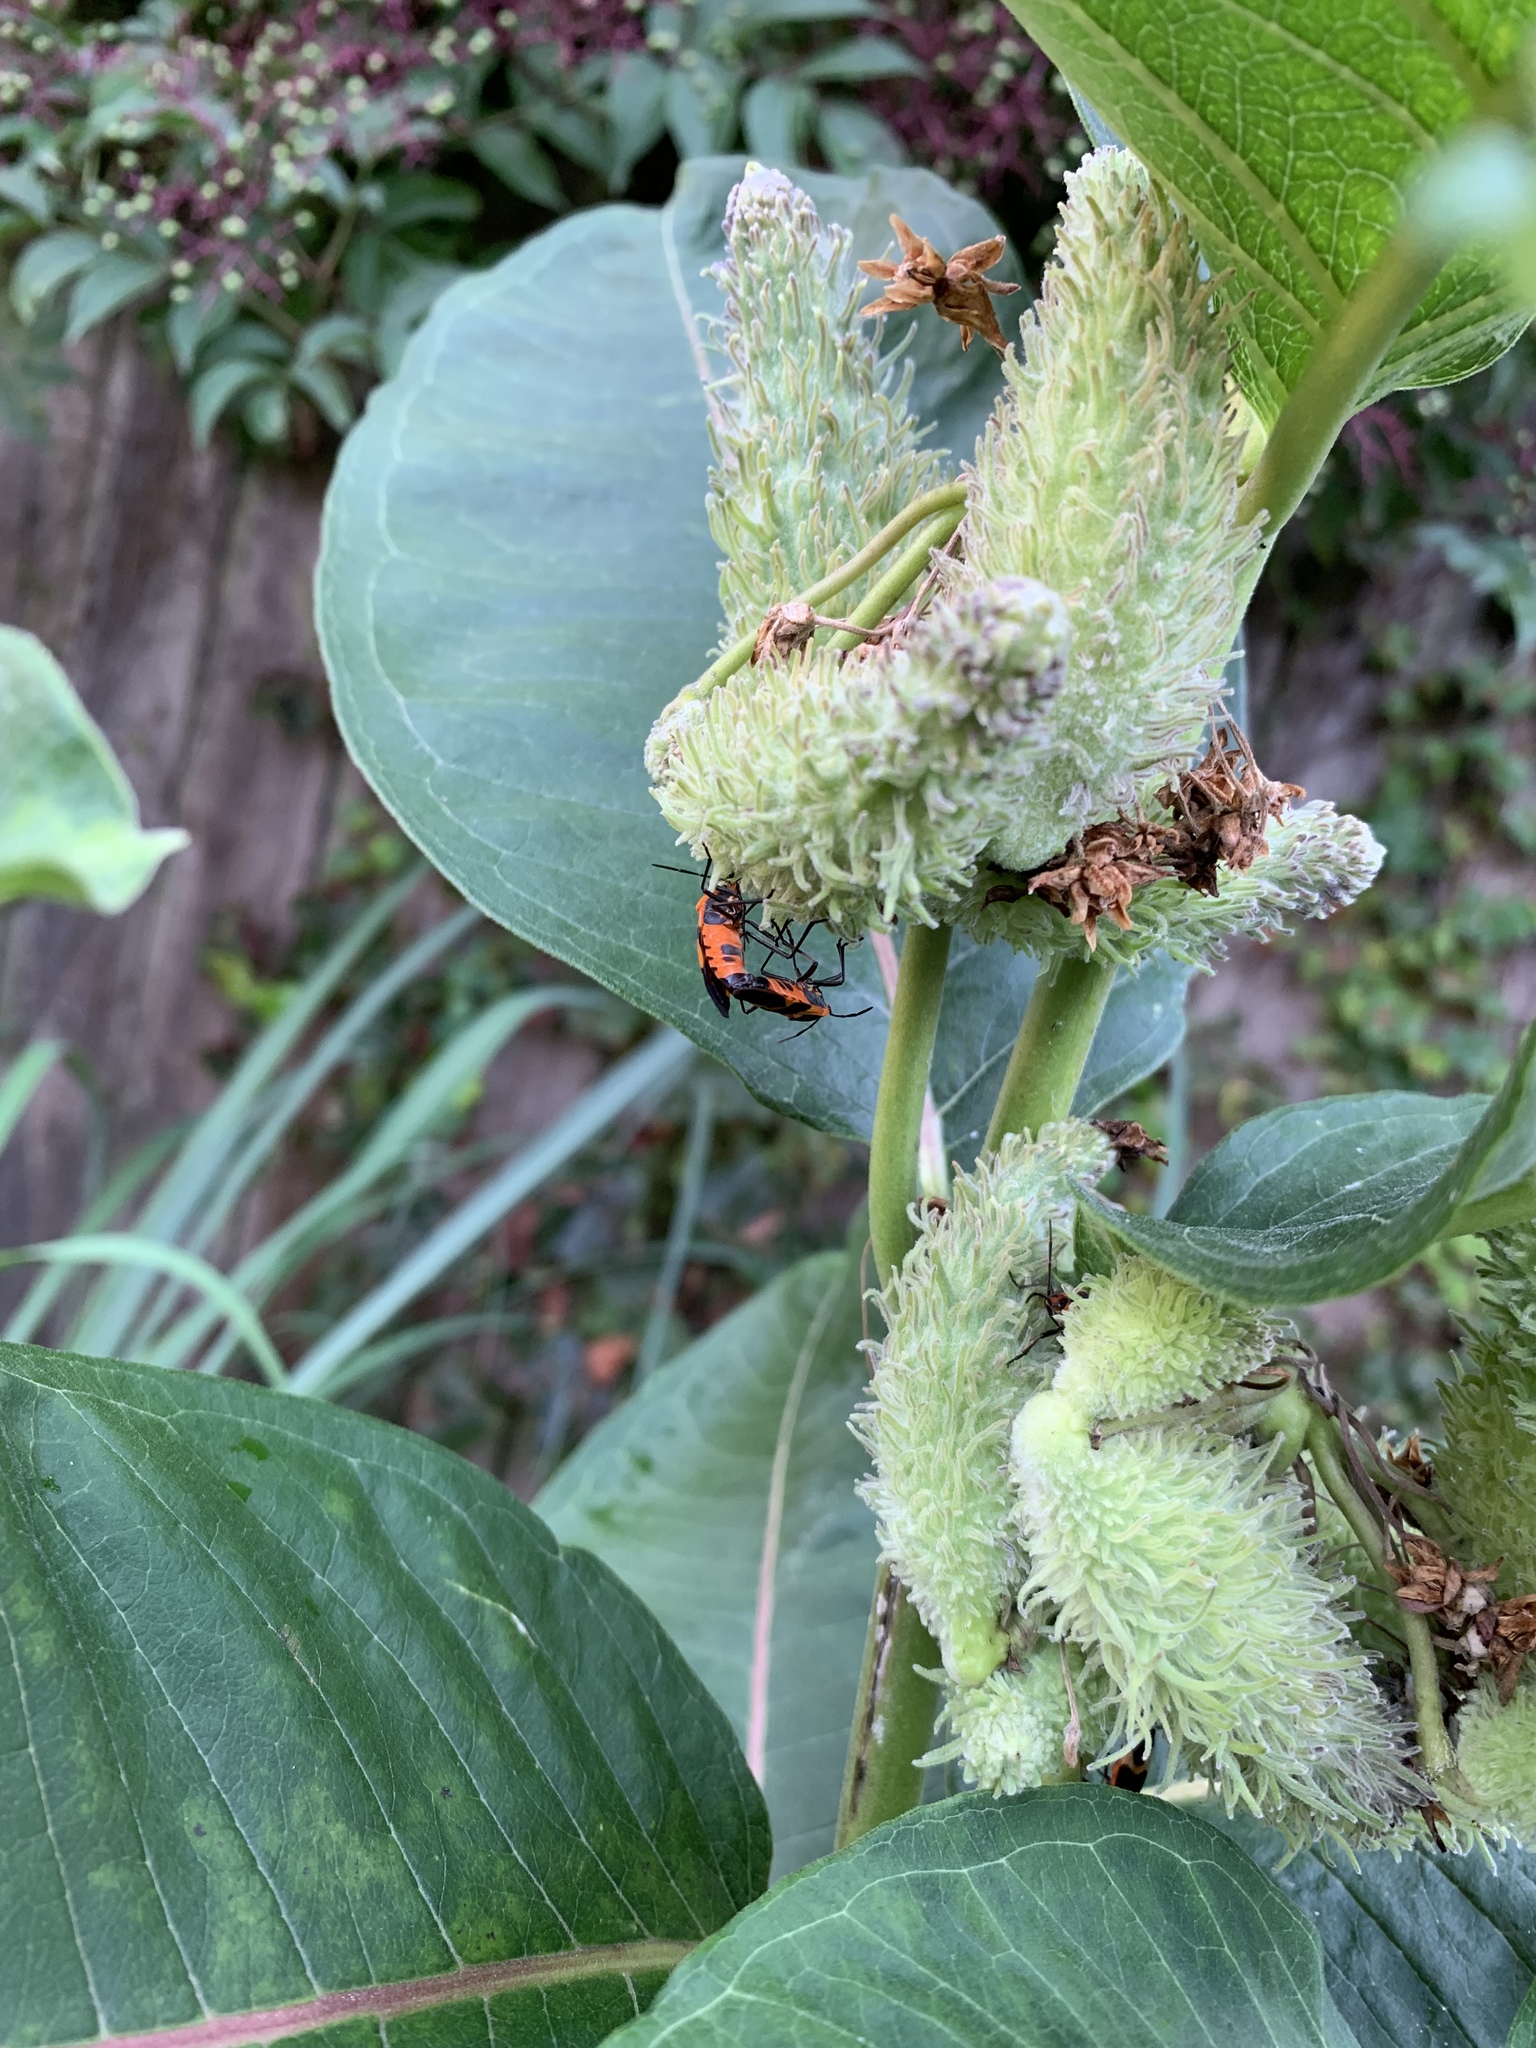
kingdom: Animalia
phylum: Arthropoda
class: Insecta
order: Hemiptera
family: Lygaeidae
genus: Oncopeltus
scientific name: Oncopeltus fasciatus
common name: Large milkweed bug
